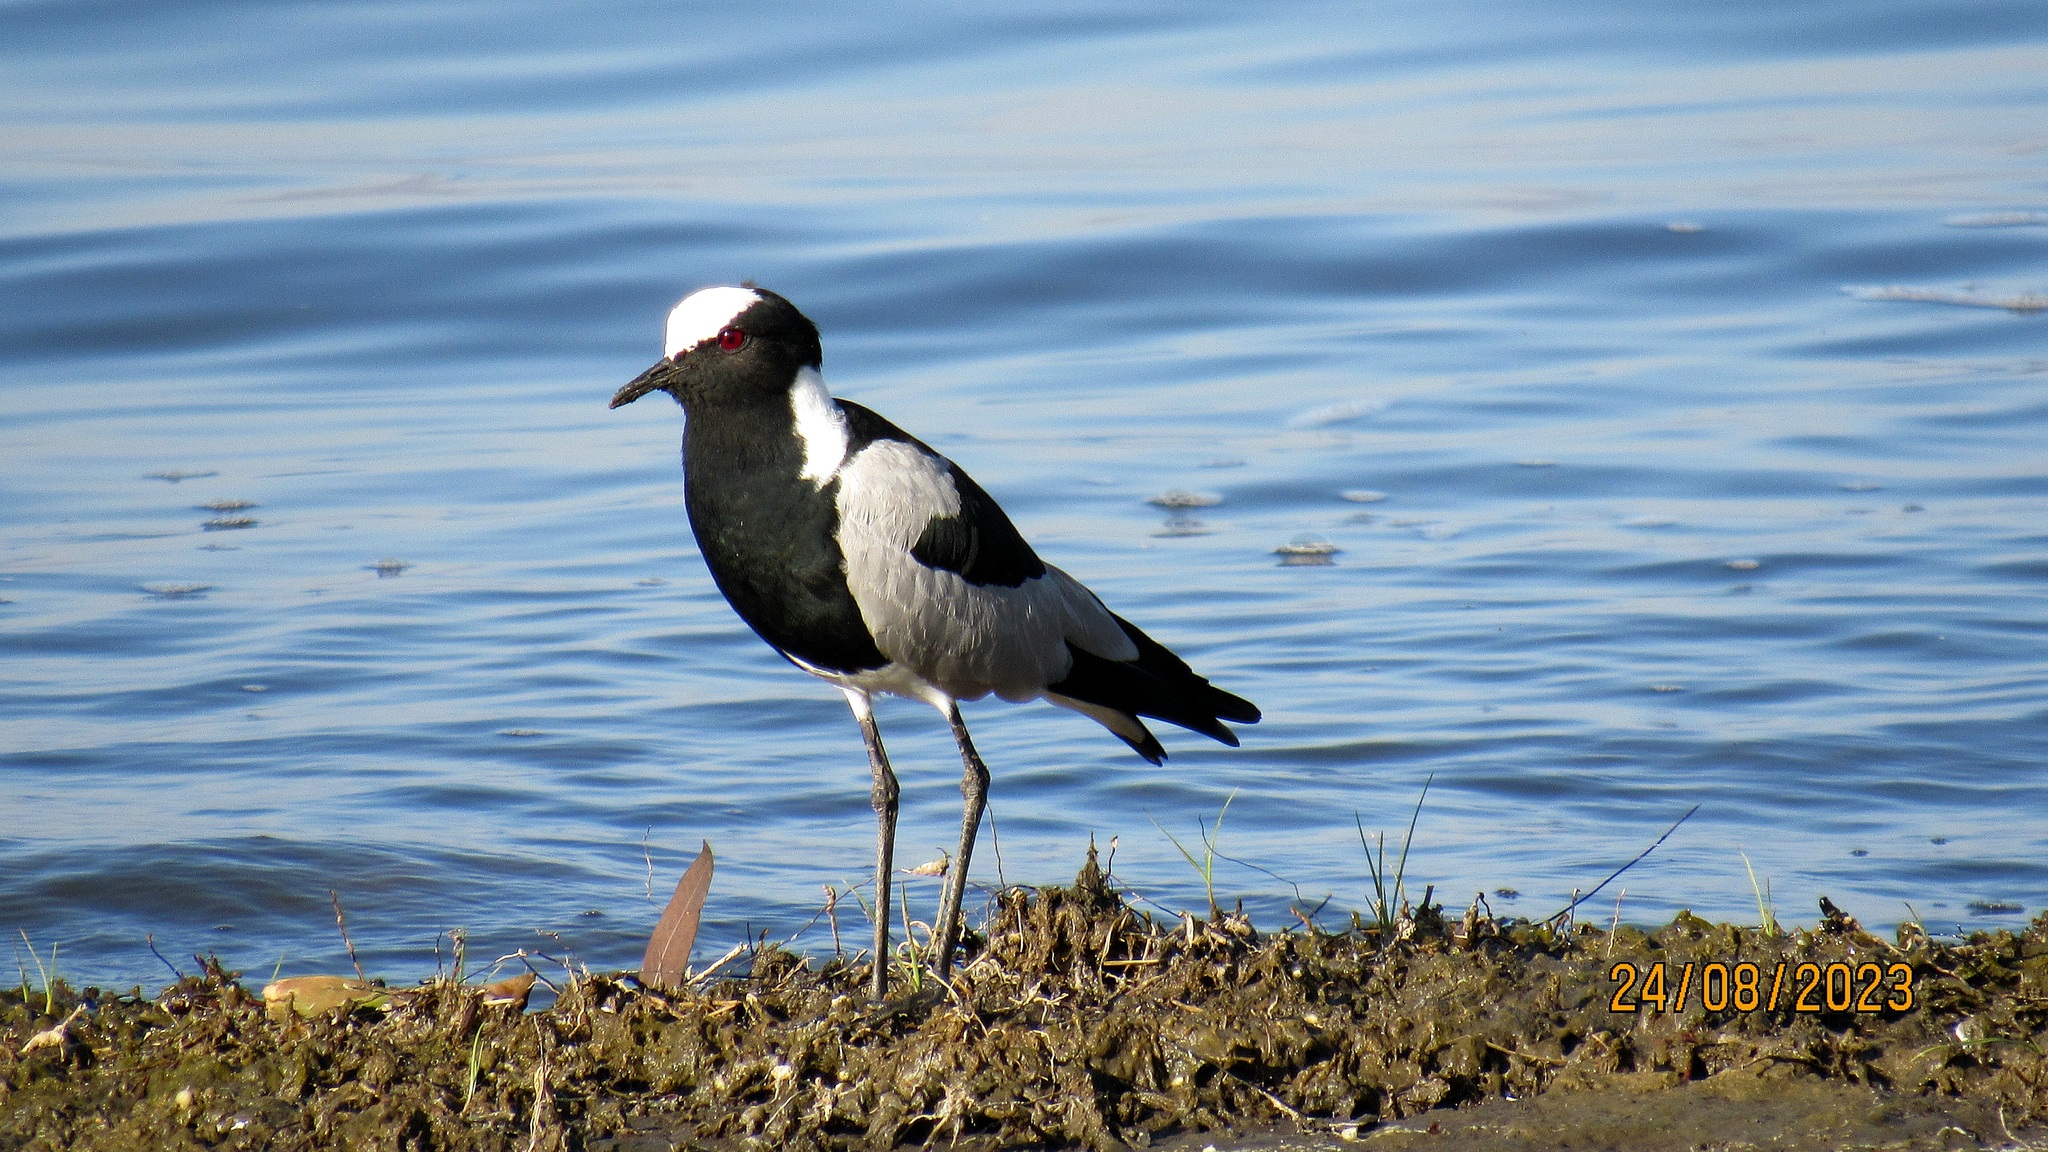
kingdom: Animalia
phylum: Chordata
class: Aves
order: Charadriiformes
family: Charadriidae
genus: Vanellus
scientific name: Vanellus armatus
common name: Blacksmith lapwing
